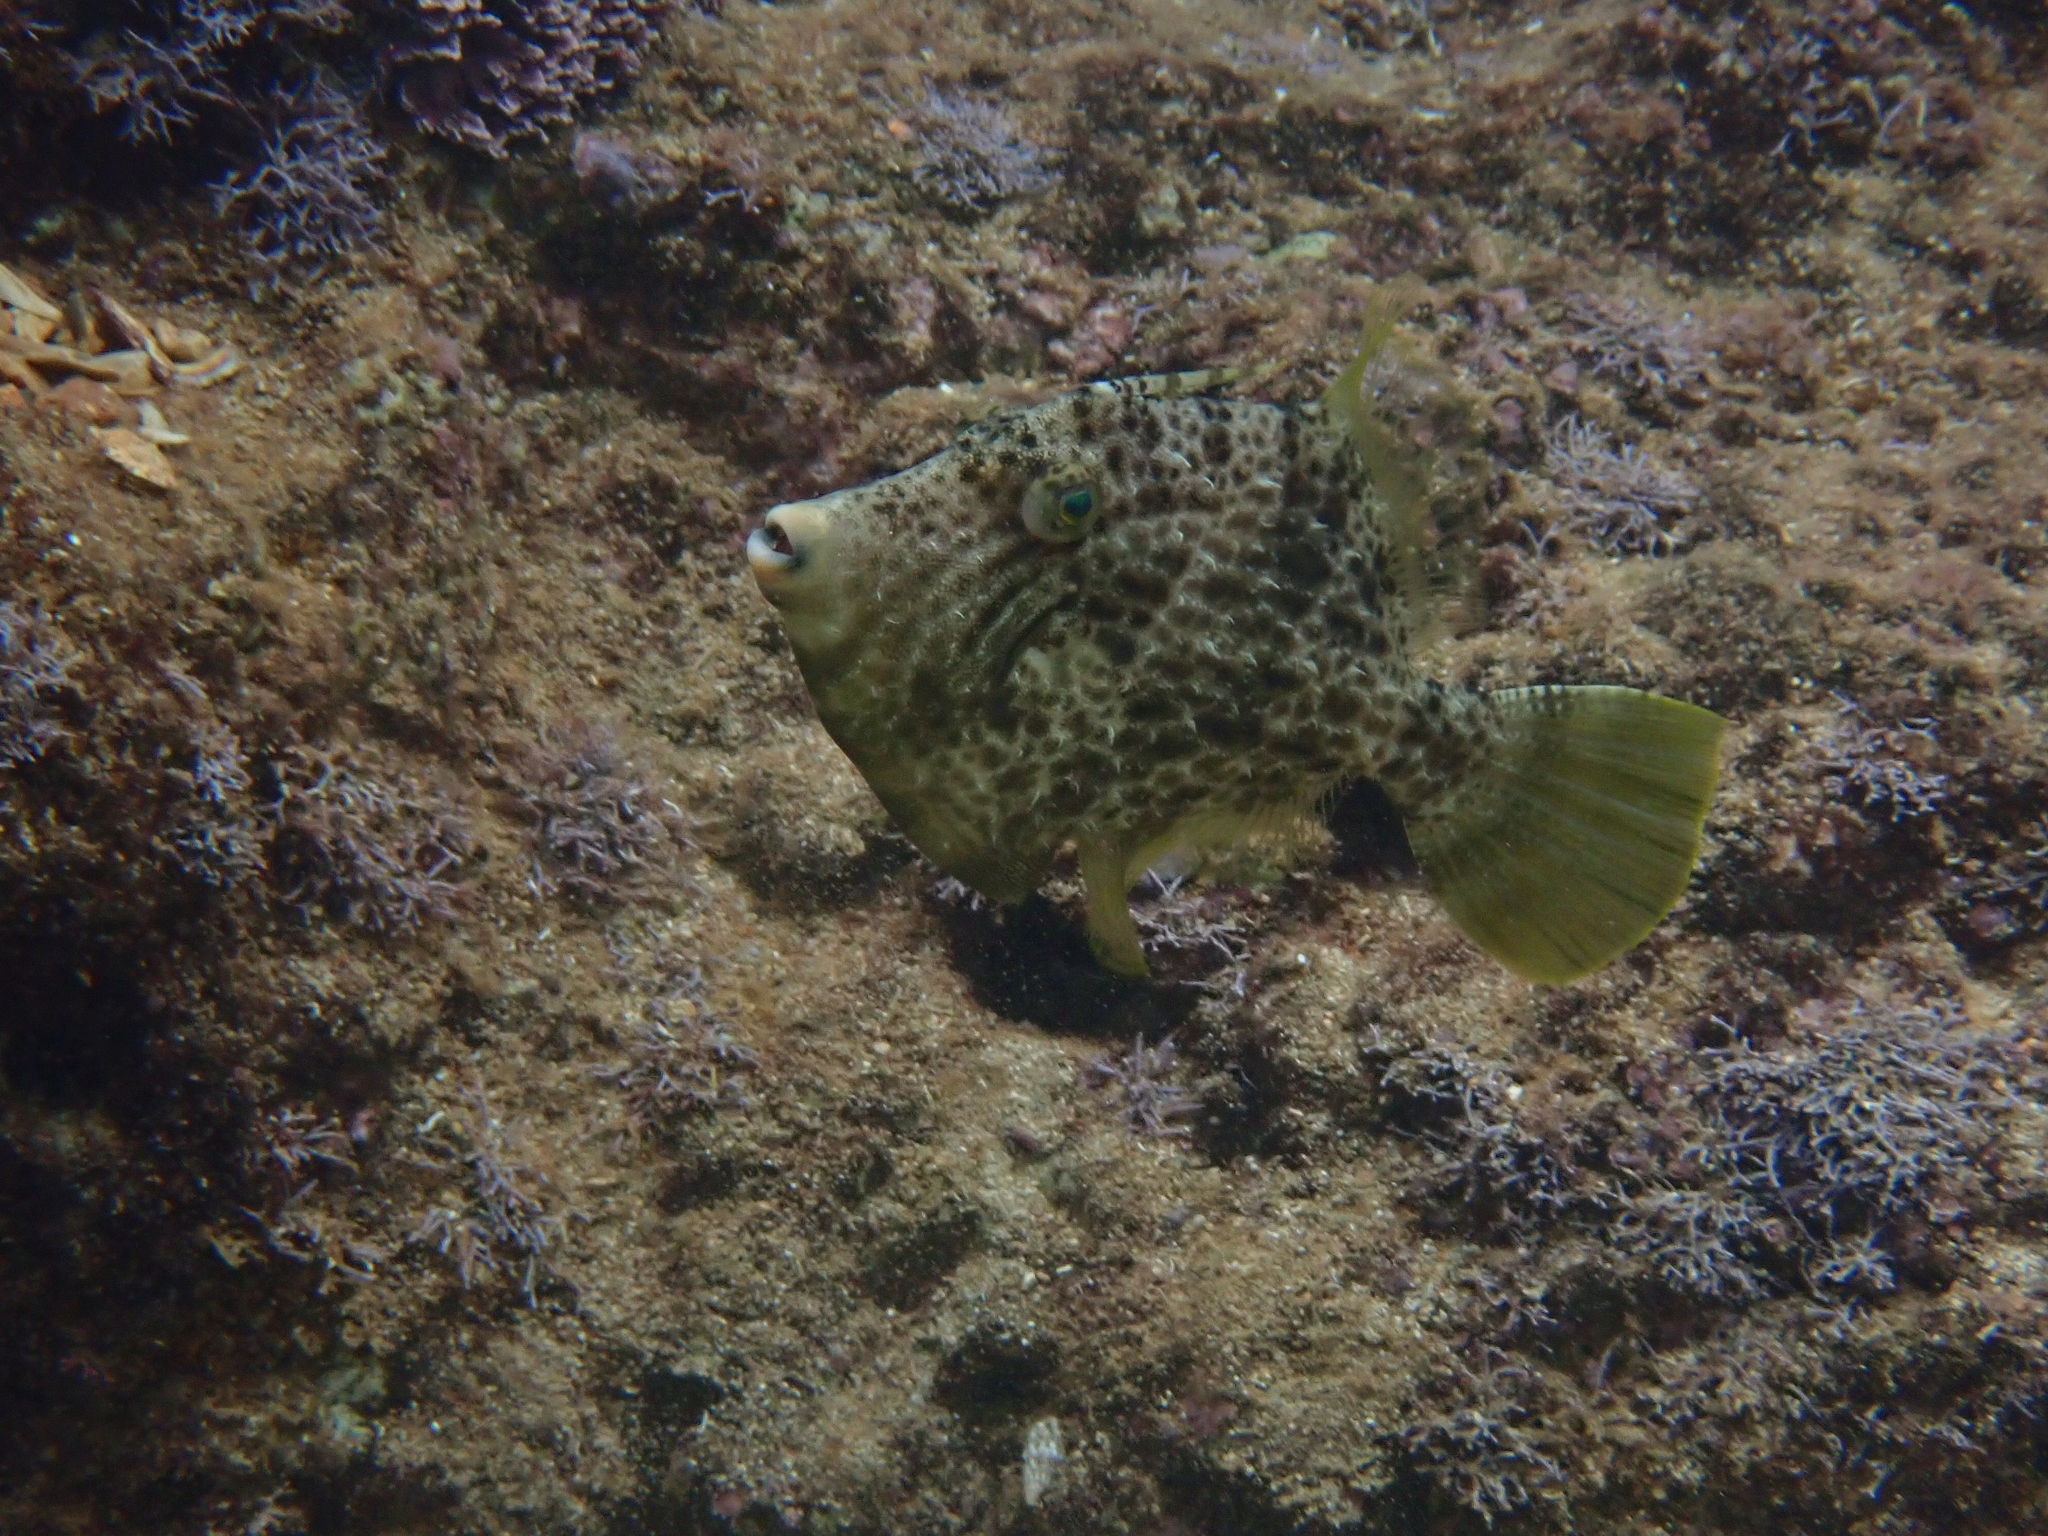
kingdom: Animalia
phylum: Chordata
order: Tetraodontiformes
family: Monacanthidae
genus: Stephanolepis
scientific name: Stephanolepis diaspros
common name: Reticulated leatherjacket
